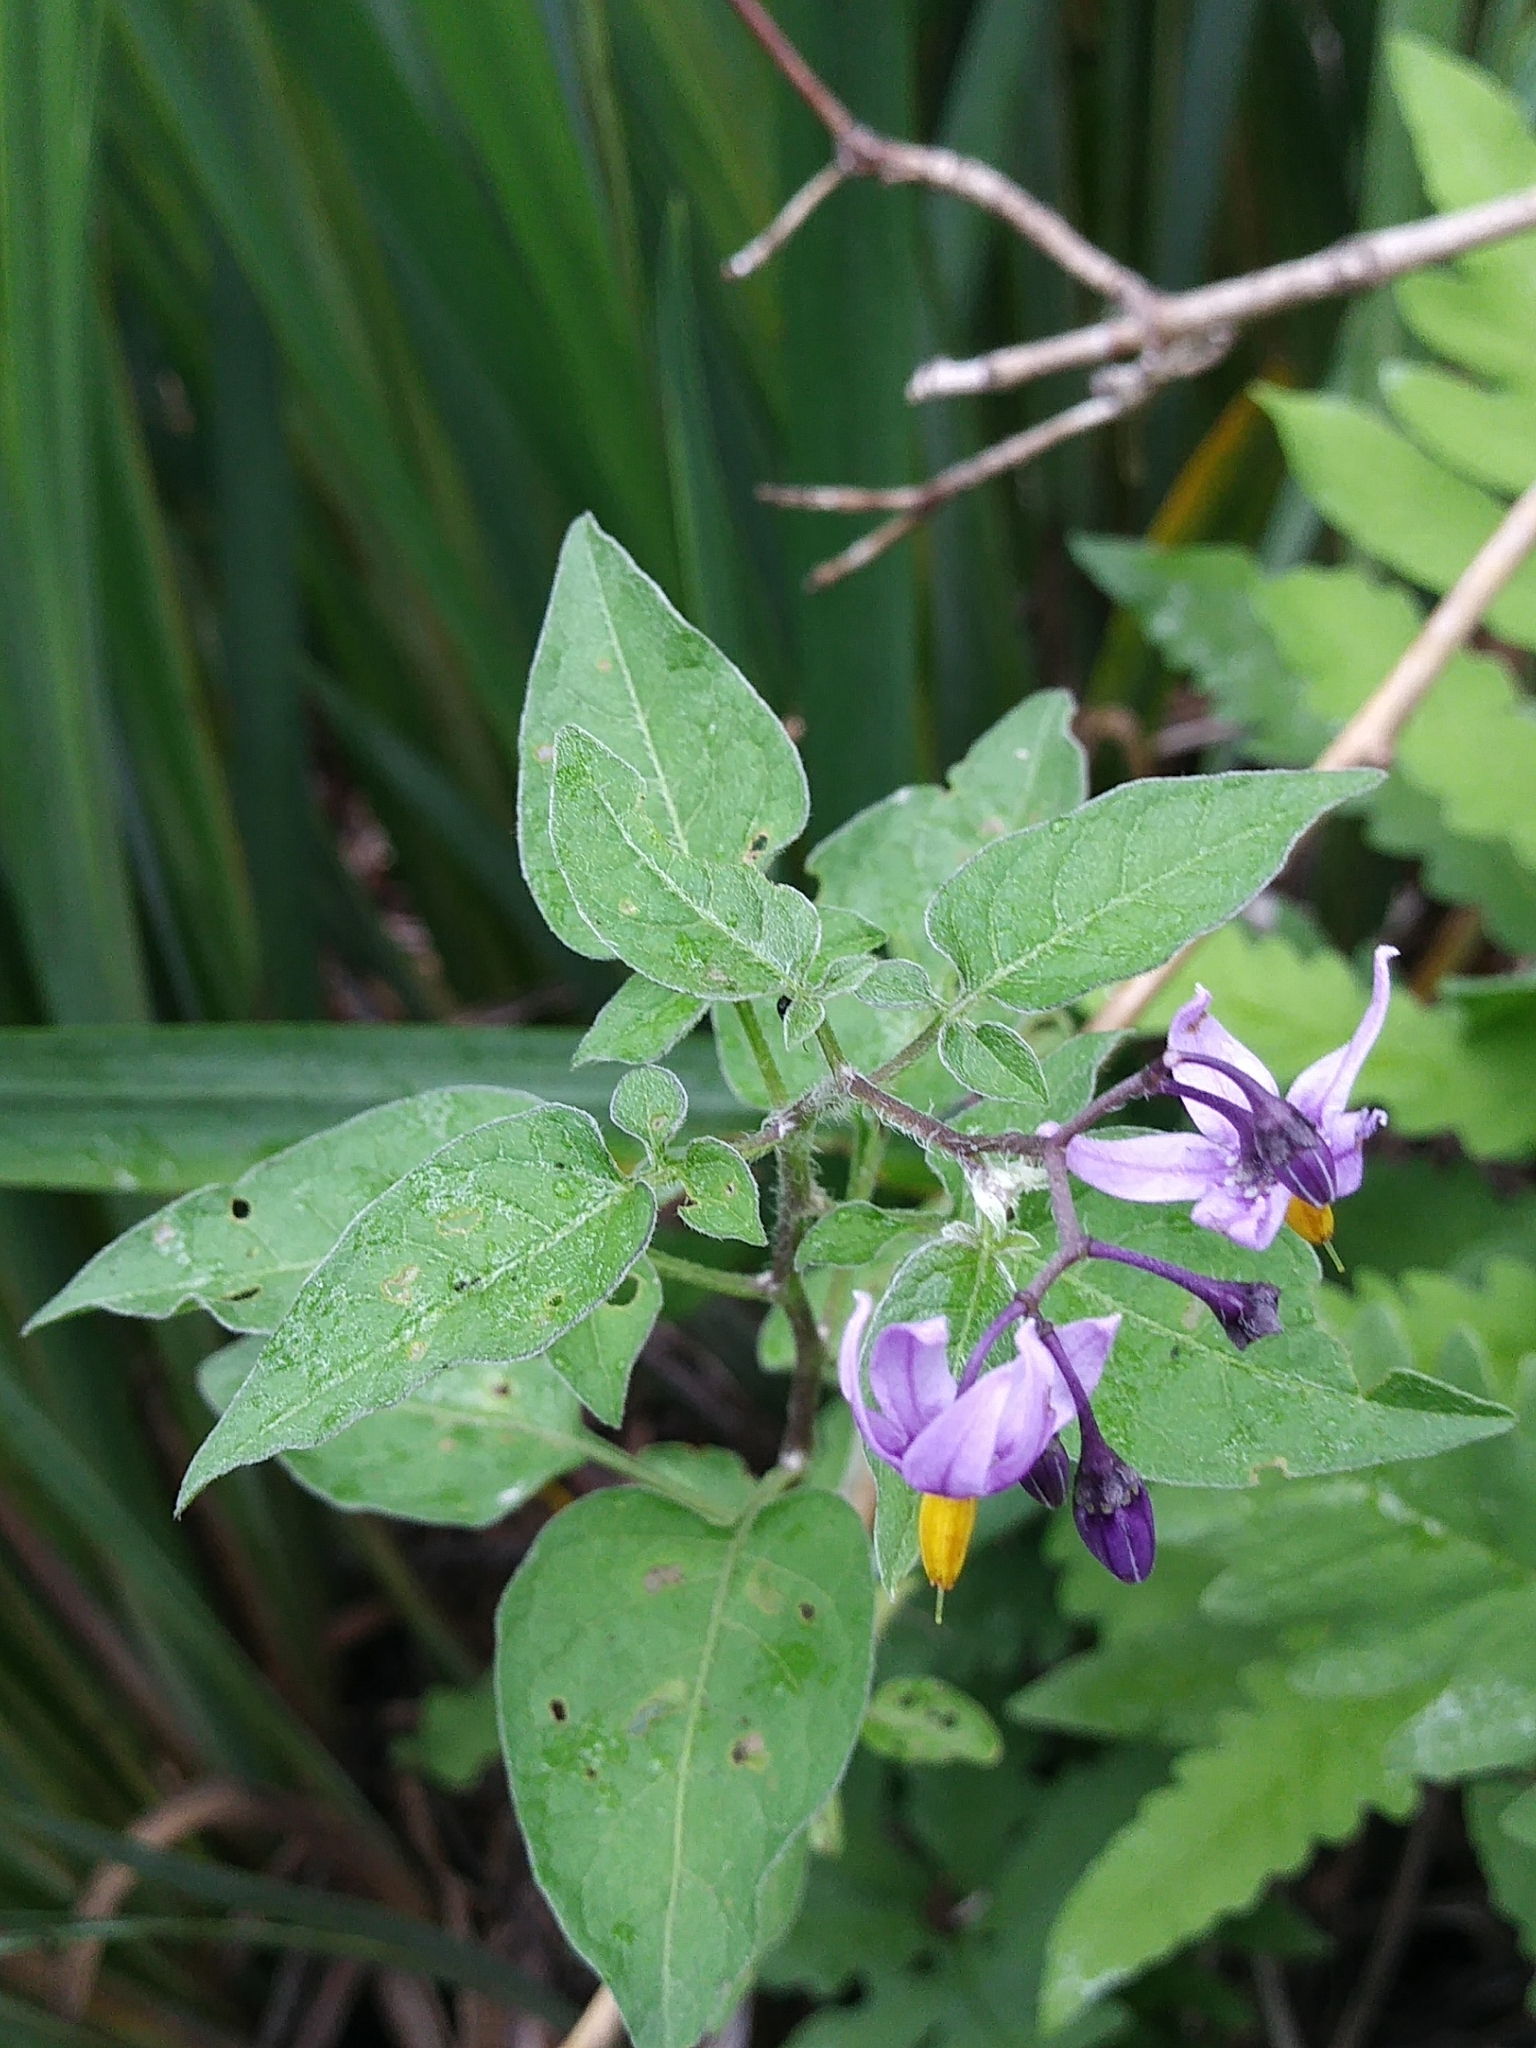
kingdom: Plantae
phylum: Tracheophyta
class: Magnoliopsida
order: Solanales
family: Solanaceae
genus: Solanum
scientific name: Solanum dulcamara
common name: Climbing nightshade
